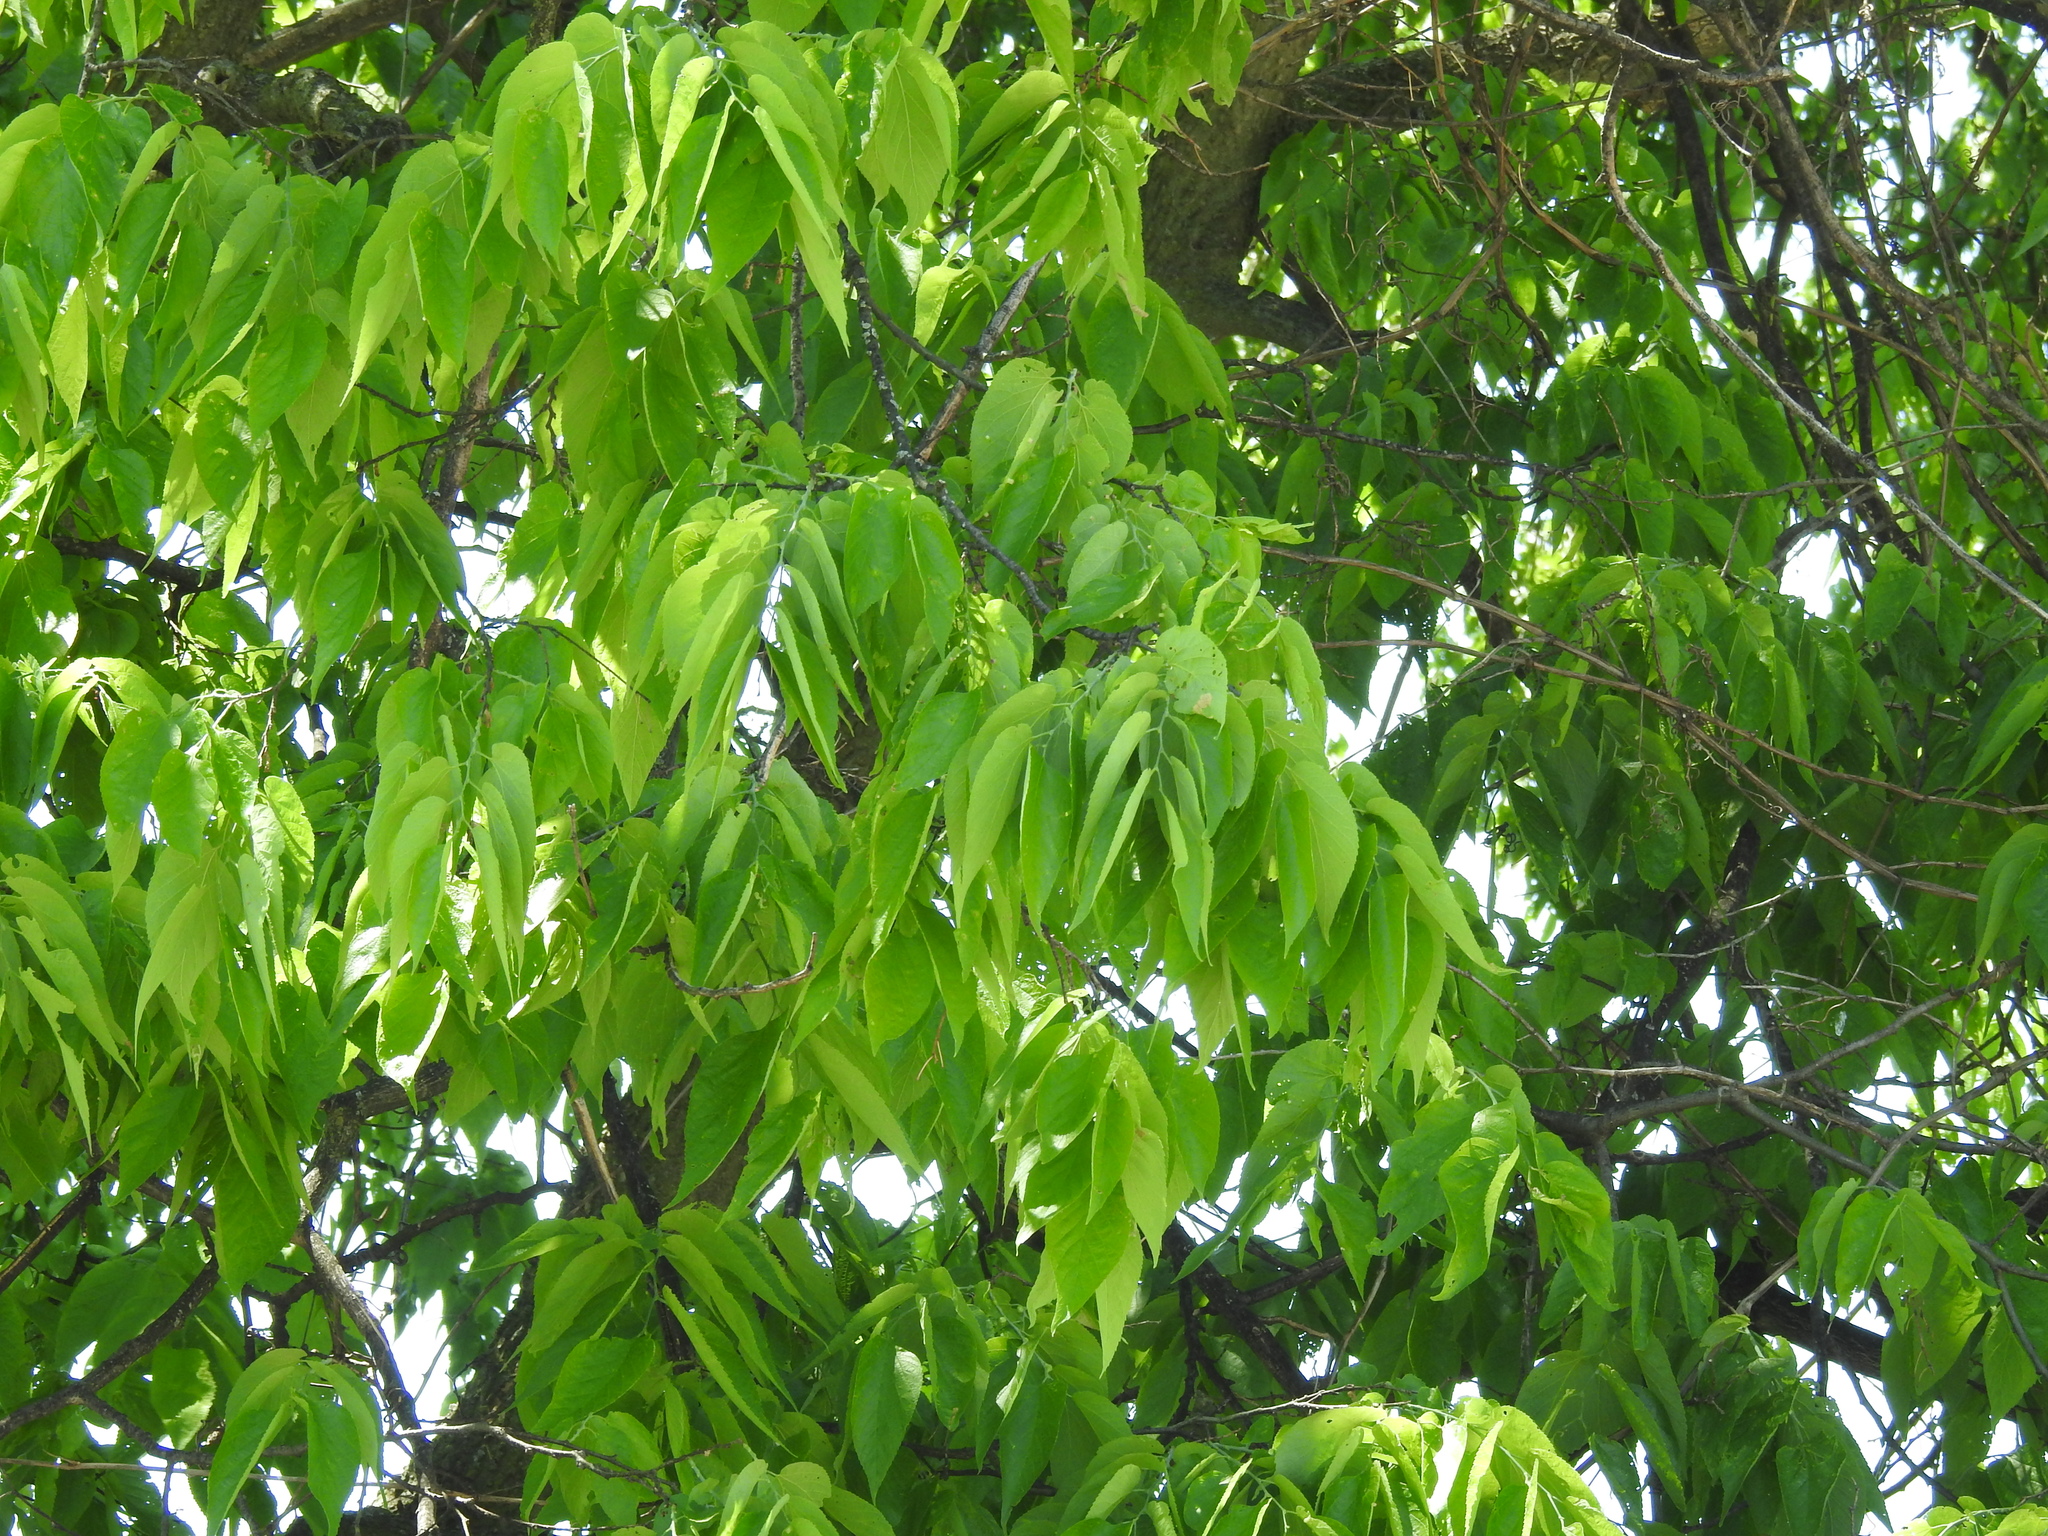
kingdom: Plantae
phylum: Tracheophyta
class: Magnoliopsida
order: Rosales
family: Cannabaceae
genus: Celtis
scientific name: Celtis occidentalis
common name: Common hackberry
